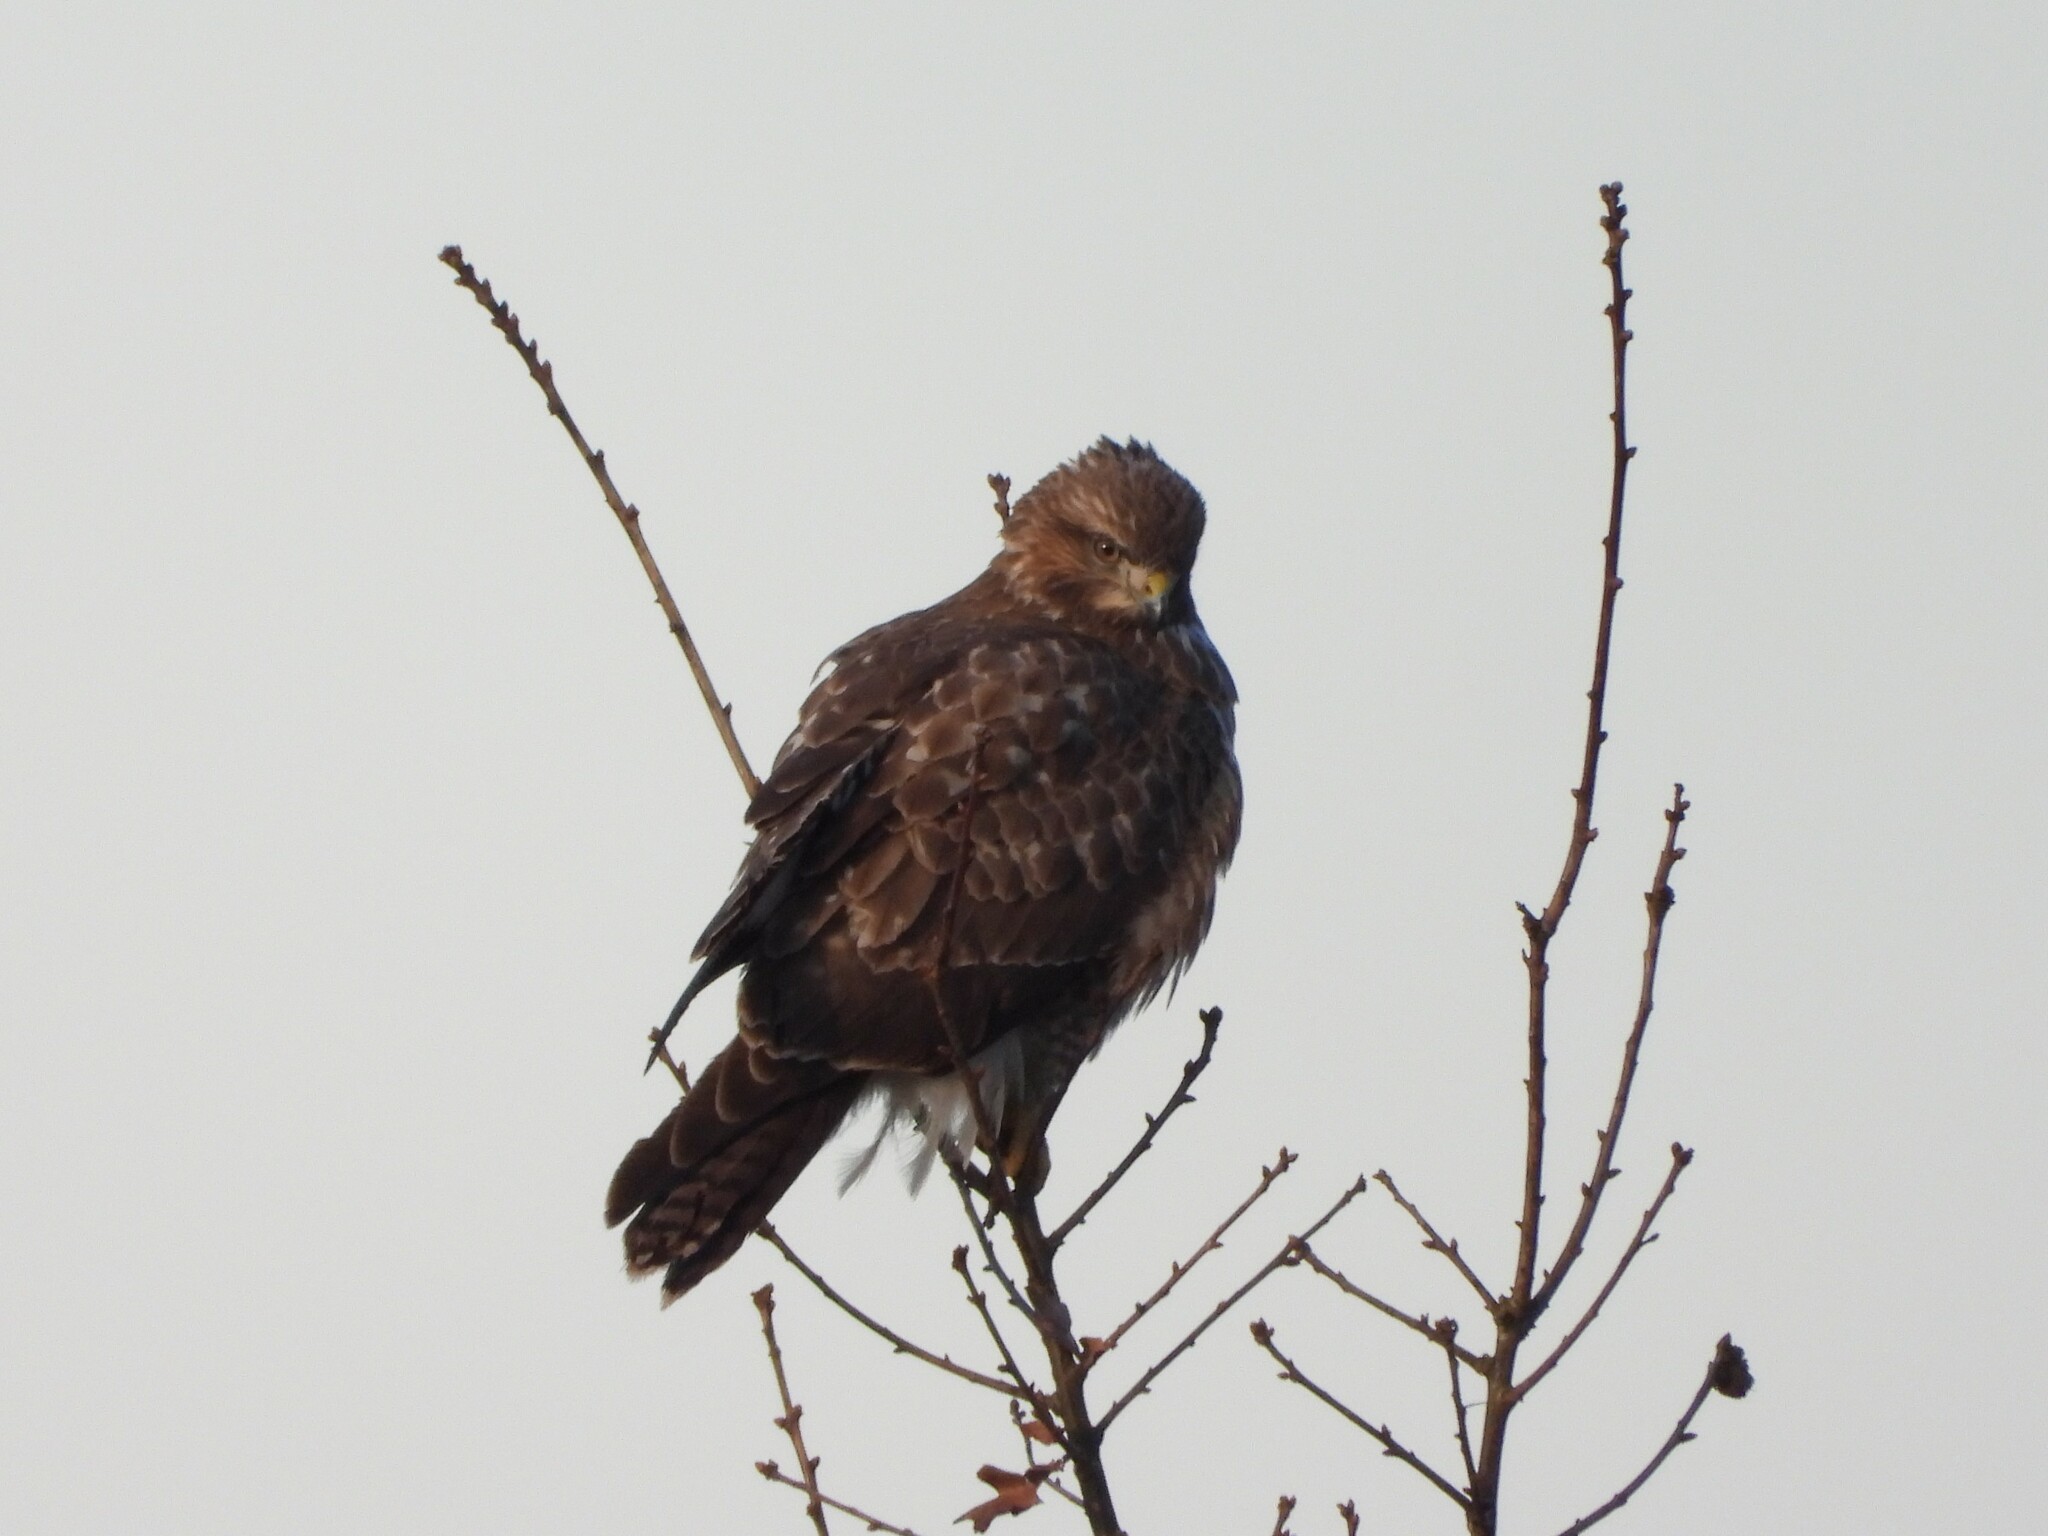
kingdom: Animalia
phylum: Chordata
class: Aves
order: Accipitriformes
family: Accipitridae
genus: Buteo
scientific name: Buteo buteo
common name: Common buzzard
